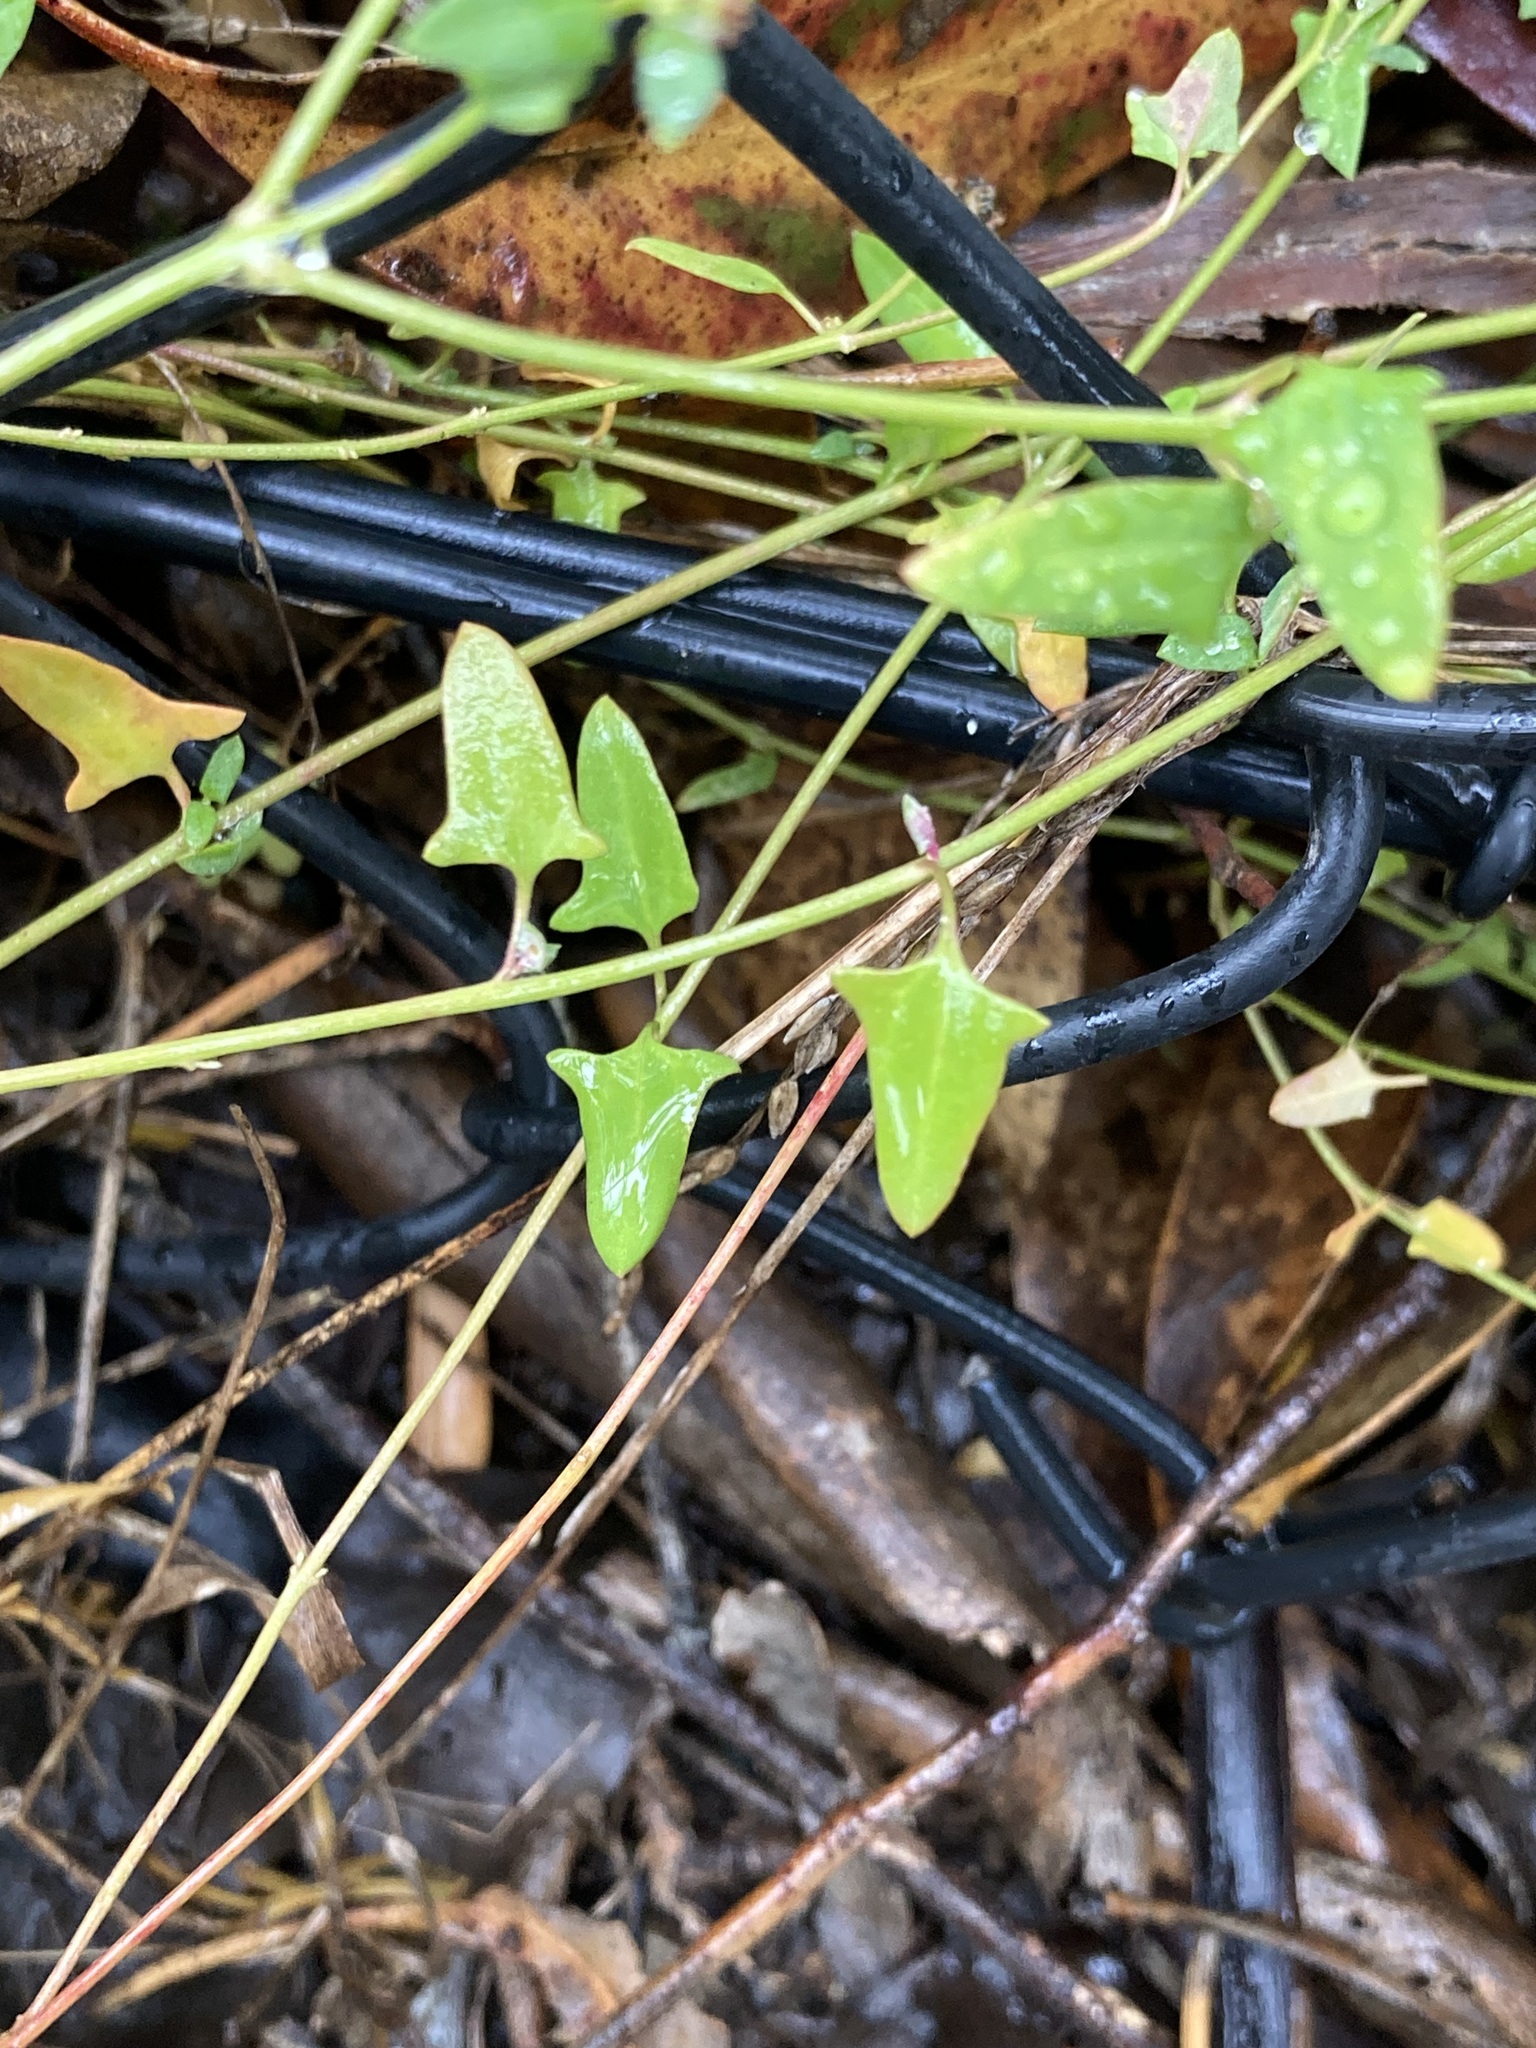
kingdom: Plantae
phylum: Tracheophyta
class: Magnoliopsida
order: Caryophyllales
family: Amaranthaceae
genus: Chenopodium
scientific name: Chenopodium nutans
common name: Climbing-saltbush
